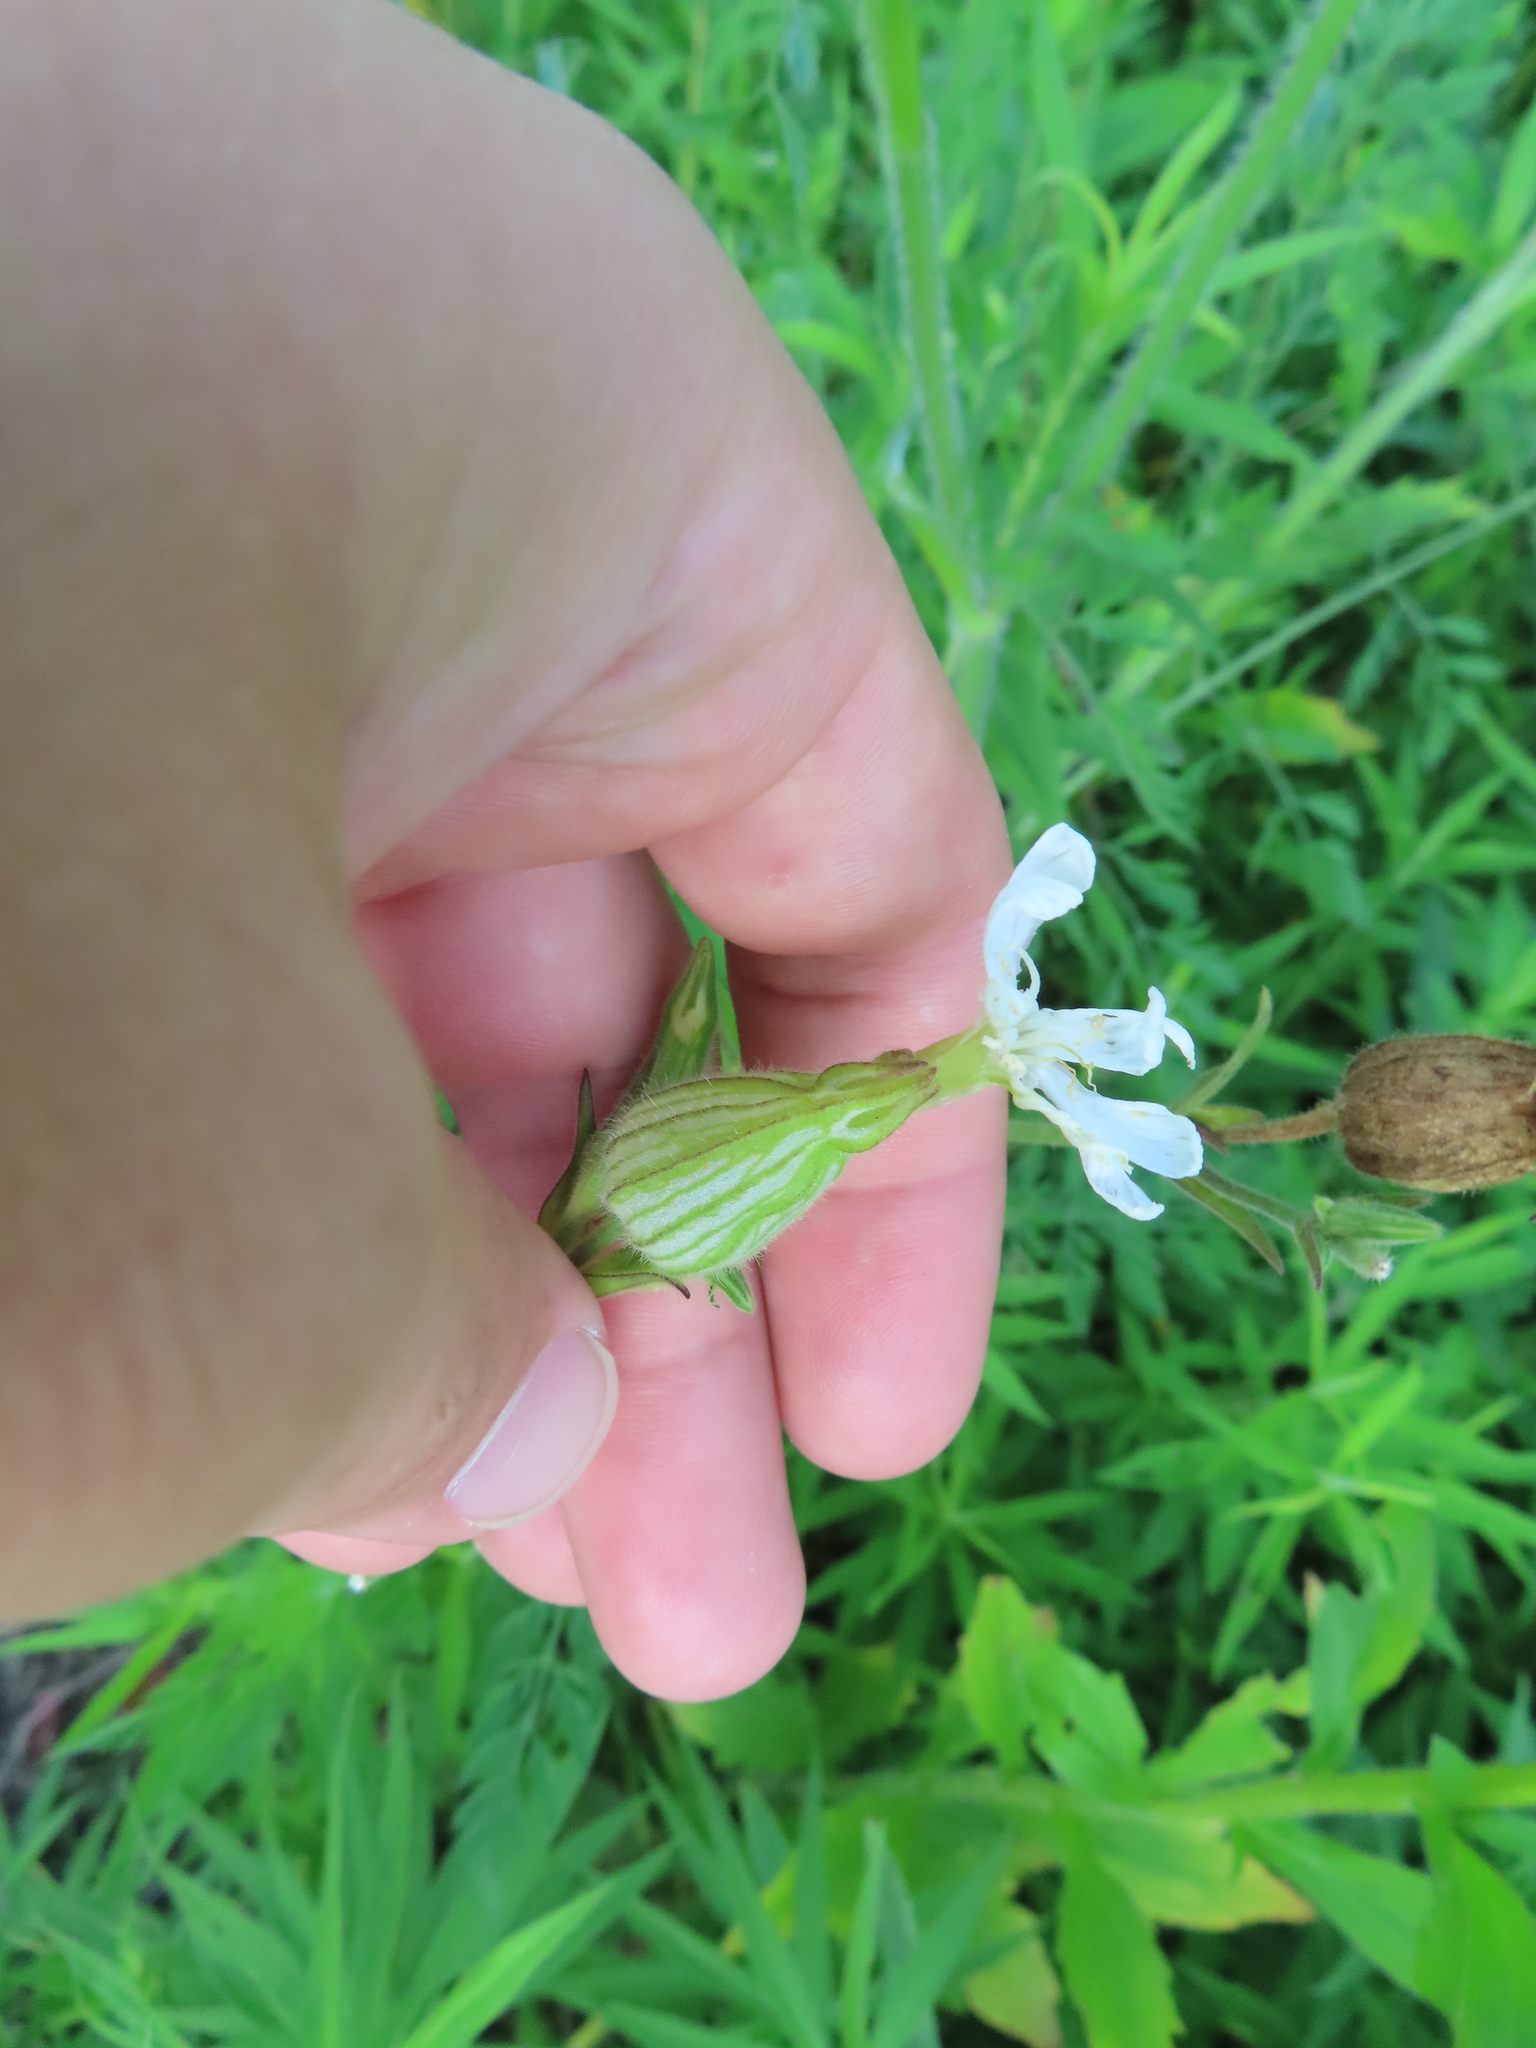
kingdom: Plantae
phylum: Tracheophyta
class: Magnoliopsida
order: Caryophyllales
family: Caryophyllaceae
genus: Silene
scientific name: Silene latifolia
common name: White campion
